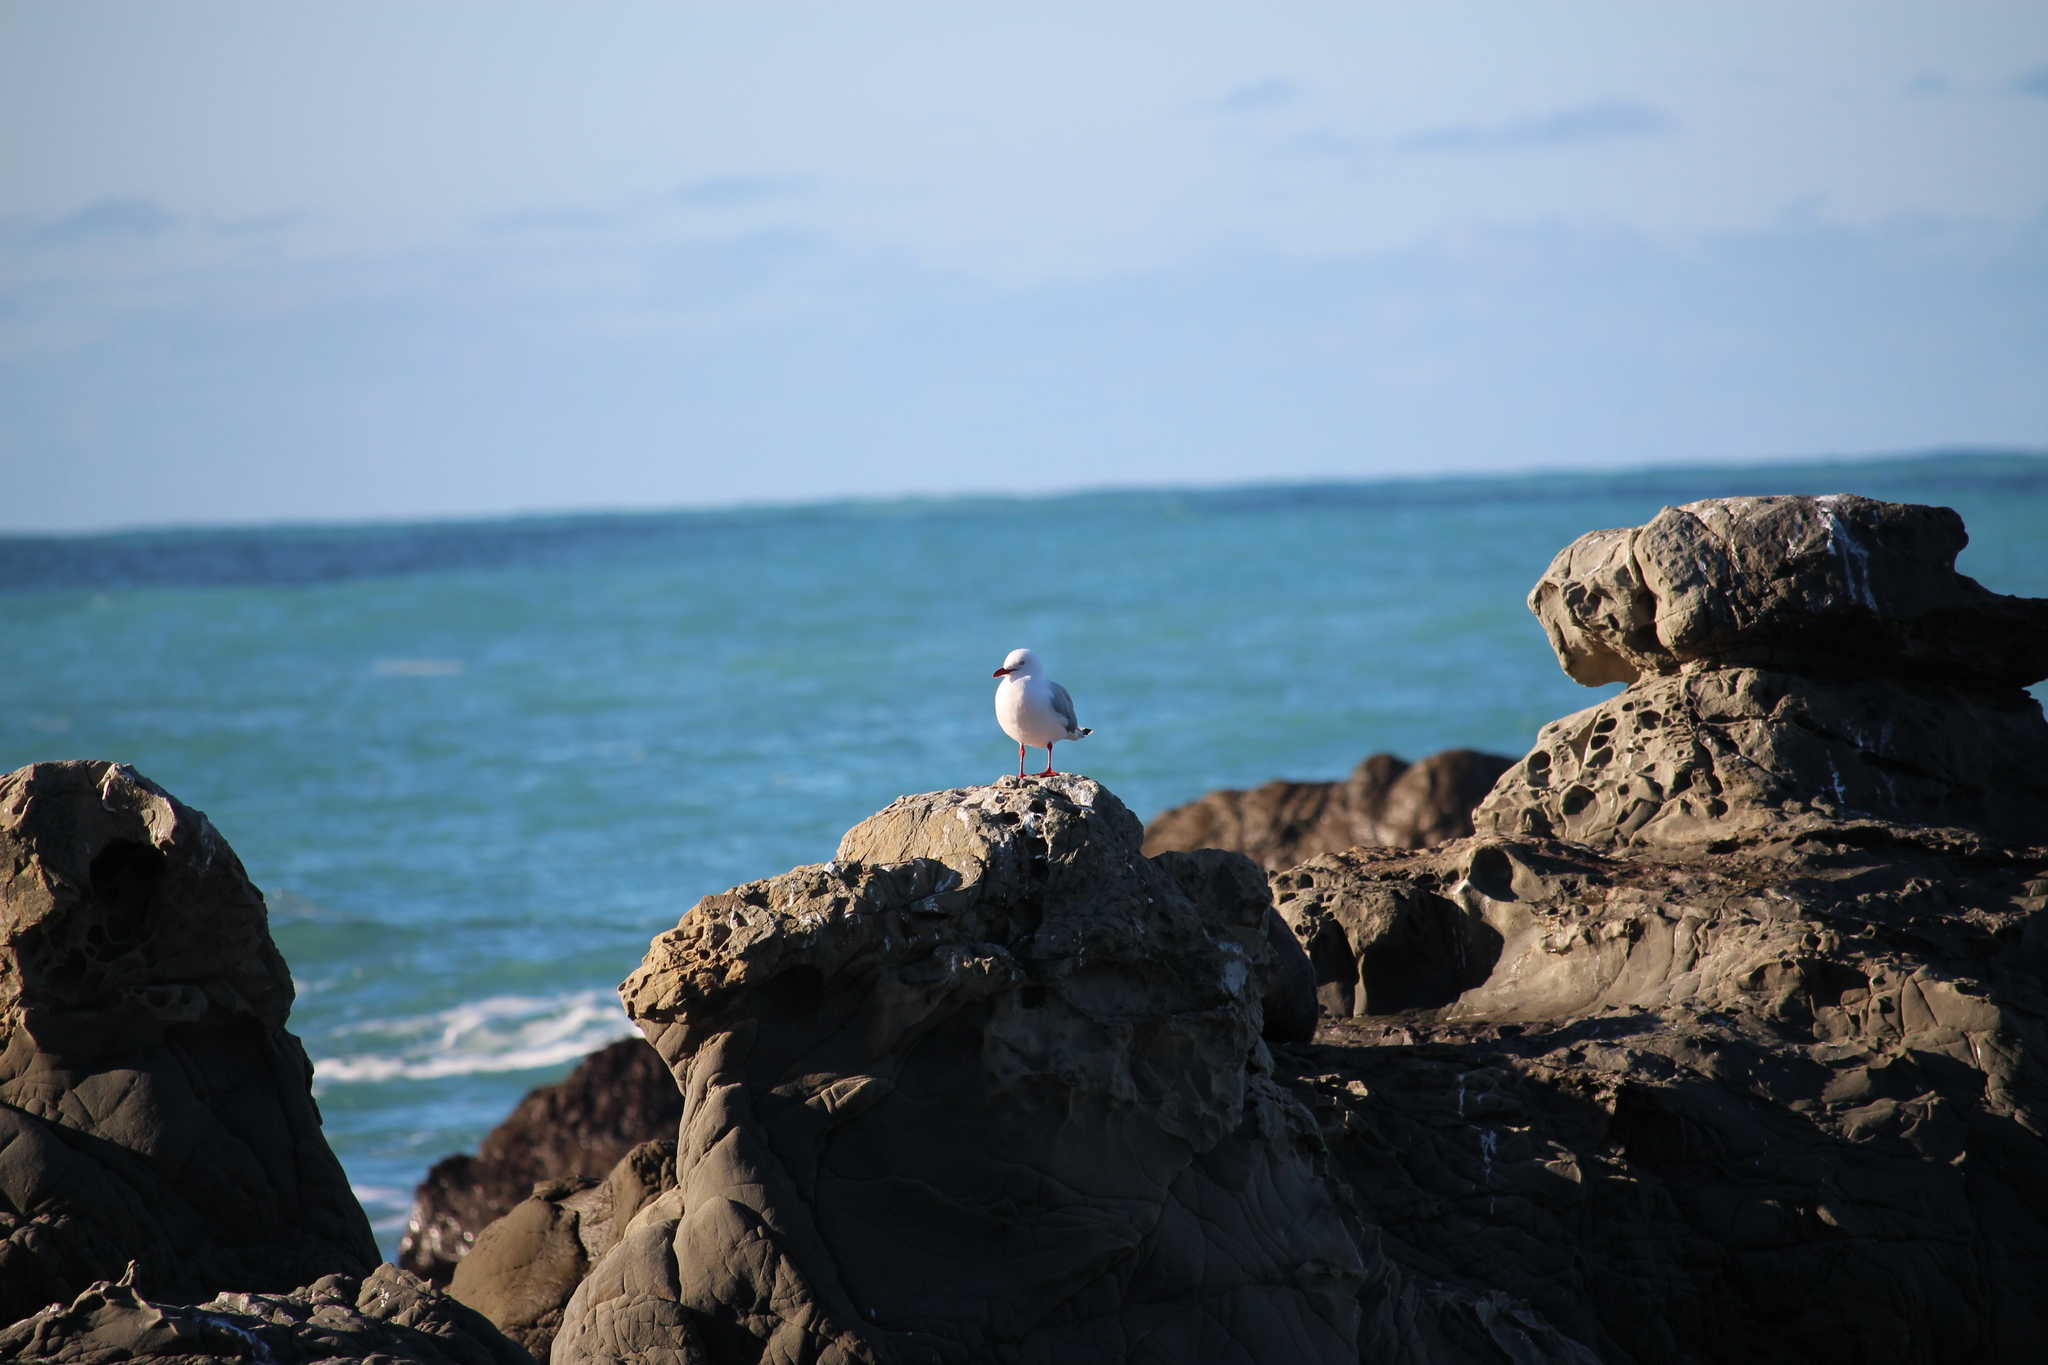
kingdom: Animalia
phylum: Chordata
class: Aves
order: Charadriiformes
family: Laridae
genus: Chroicocephalus
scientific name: Chroicocephalus novaehollandiae
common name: Silver gull
